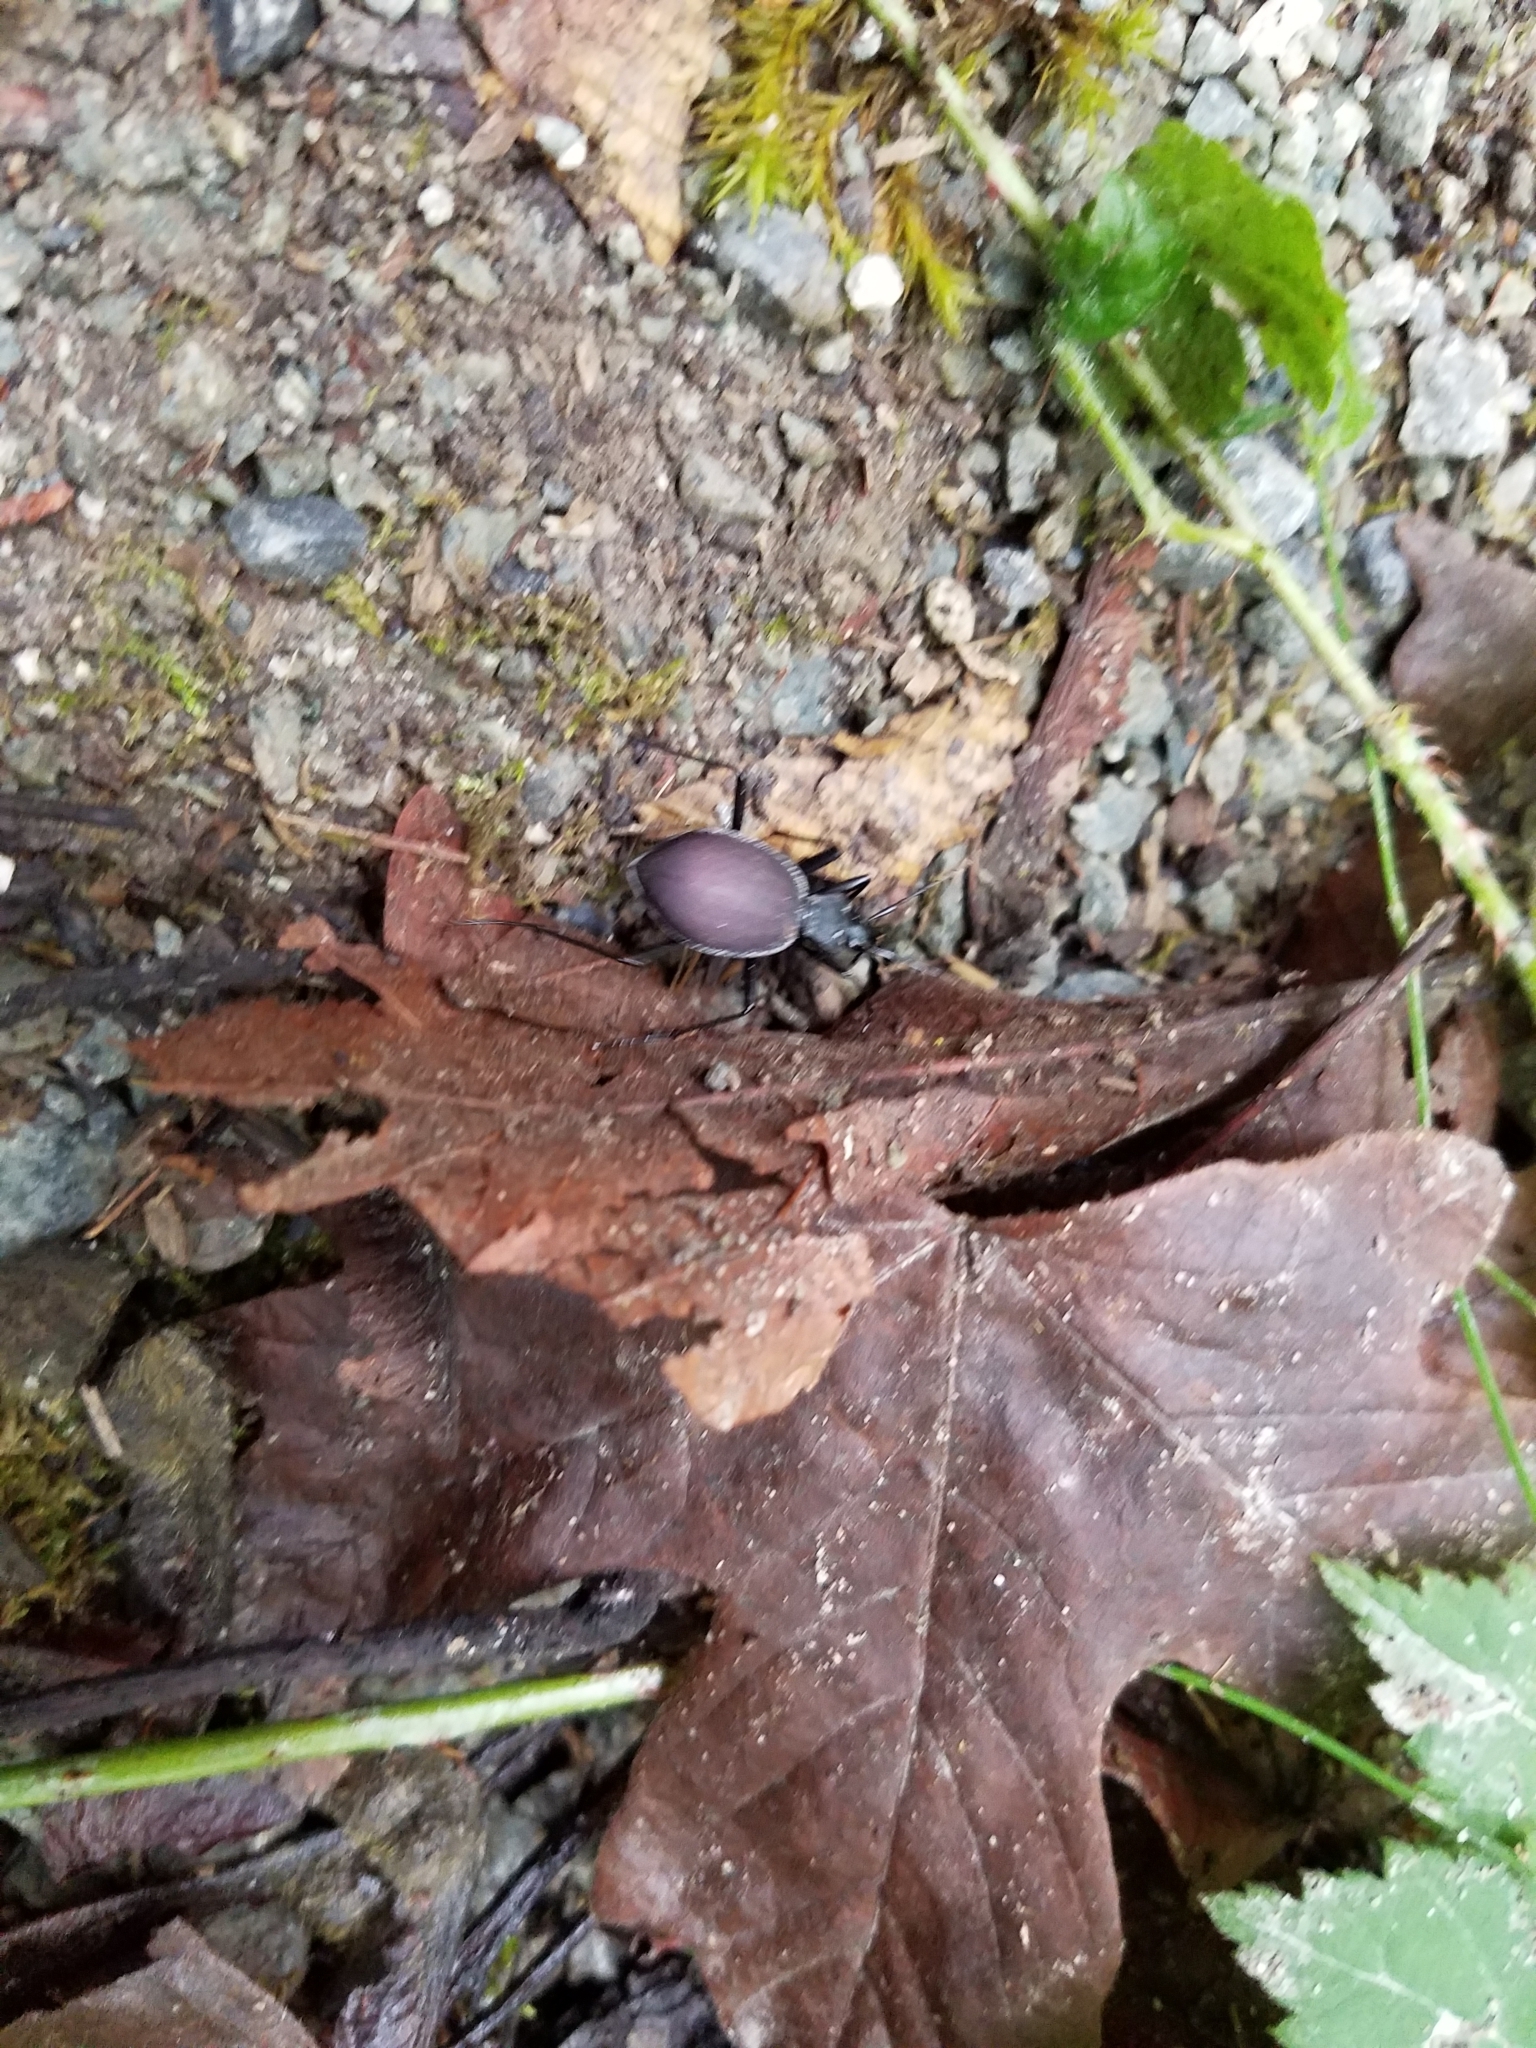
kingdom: Animalia
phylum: Arthropoda
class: Insecta
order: Coleoptera
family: Carabidae
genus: Scaphinotus
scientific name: Scaphinotus angusticollis
